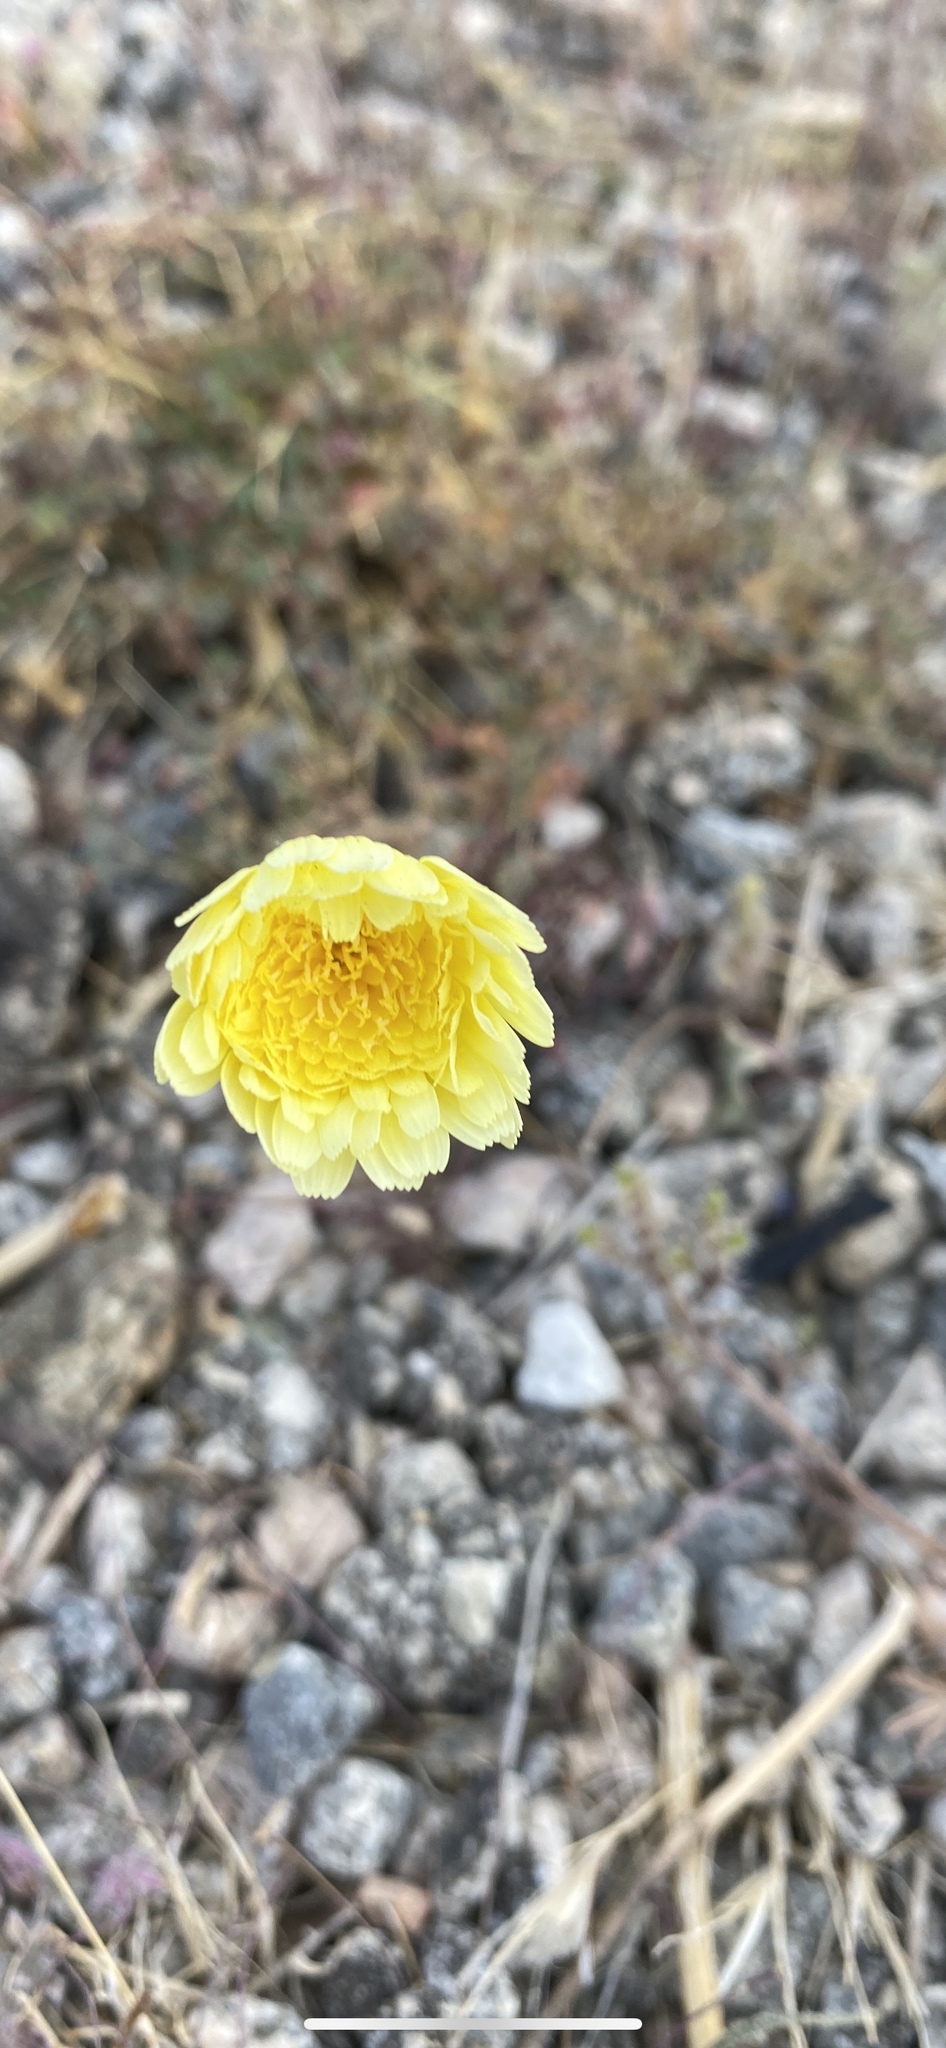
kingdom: Plantae
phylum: Tracheophyta
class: Magnoliopsida
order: Asterales
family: Asteraceae
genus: Malacothrix
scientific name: Malacothrix glabrata
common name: Smooth desert-dandelion
